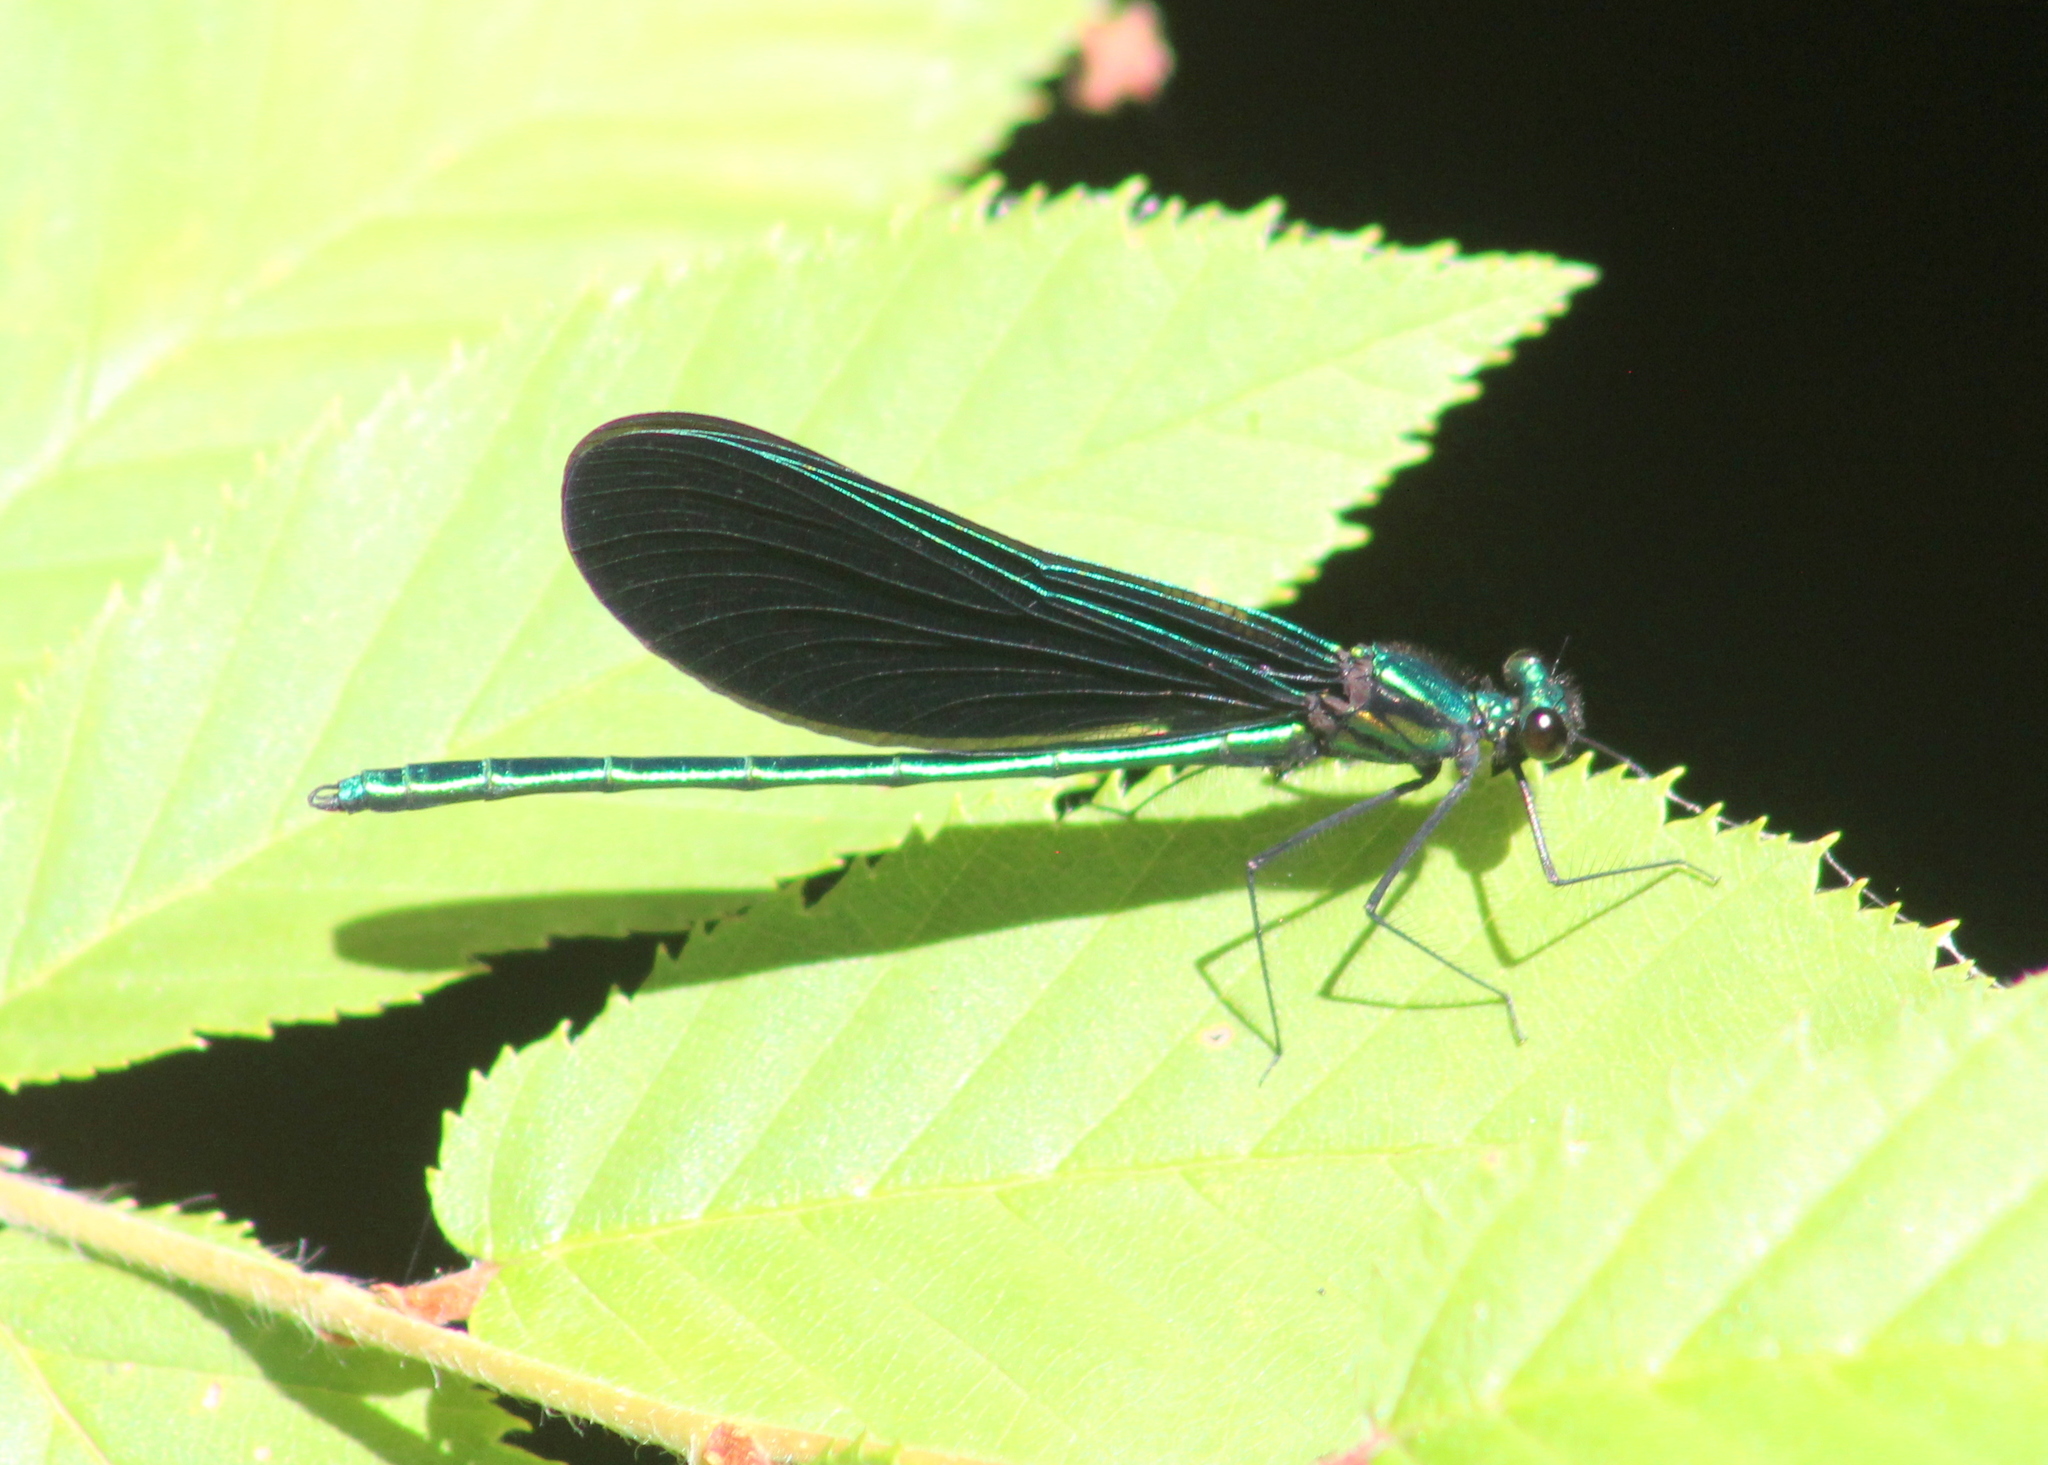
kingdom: Animalia
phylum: Arthropoda
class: Insecta
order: Odonata
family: Calopterygidae
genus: Calopteryx
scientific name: Calopteryx maculata
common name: Ebony jewelwing
